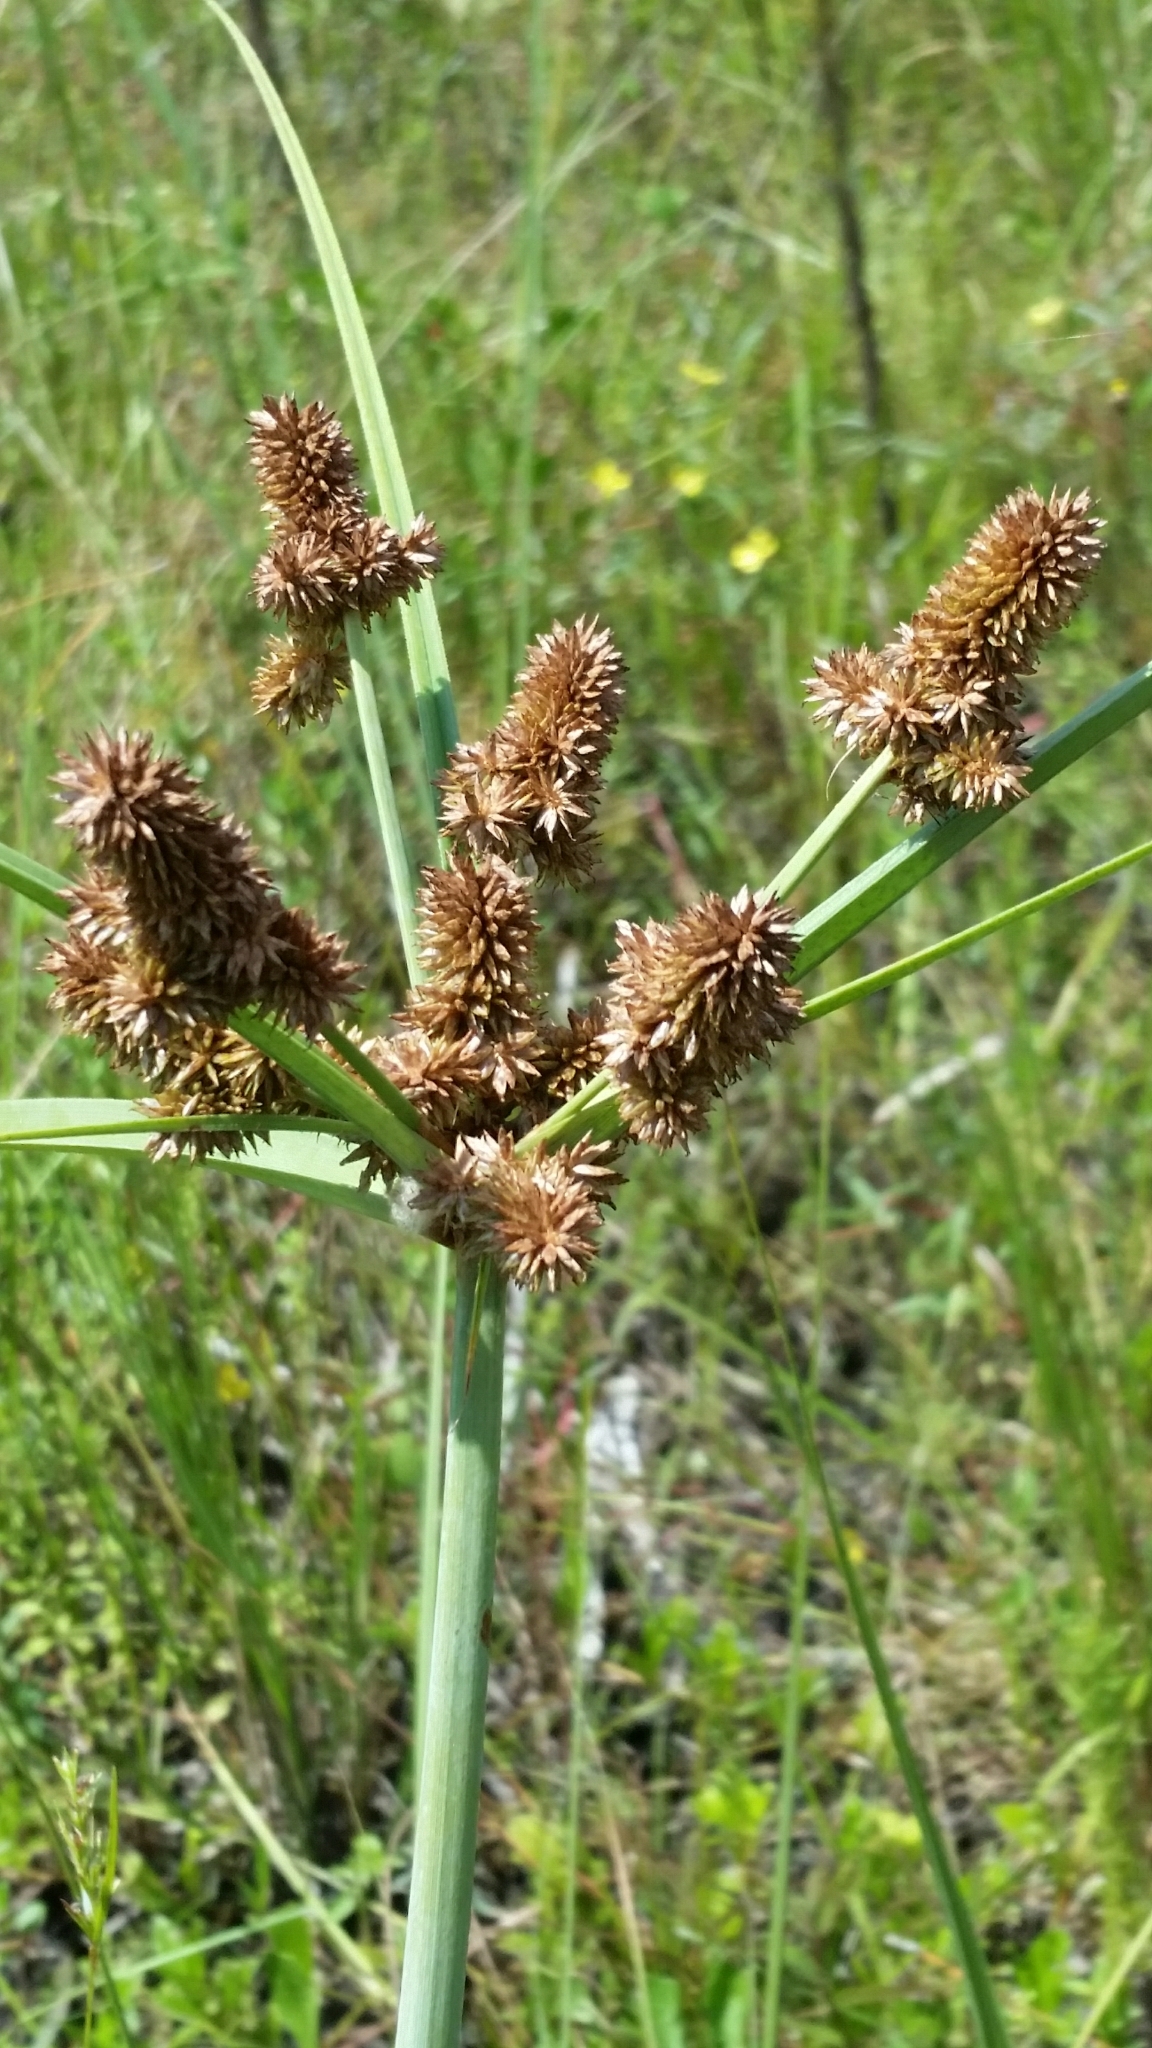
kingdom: Plantae
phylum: Tracheophyta
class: Liliopsida
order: Poales
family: Cyperaceae
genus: Cyperus
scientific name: Cyperus ligularis
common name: Swamp flat sedge
